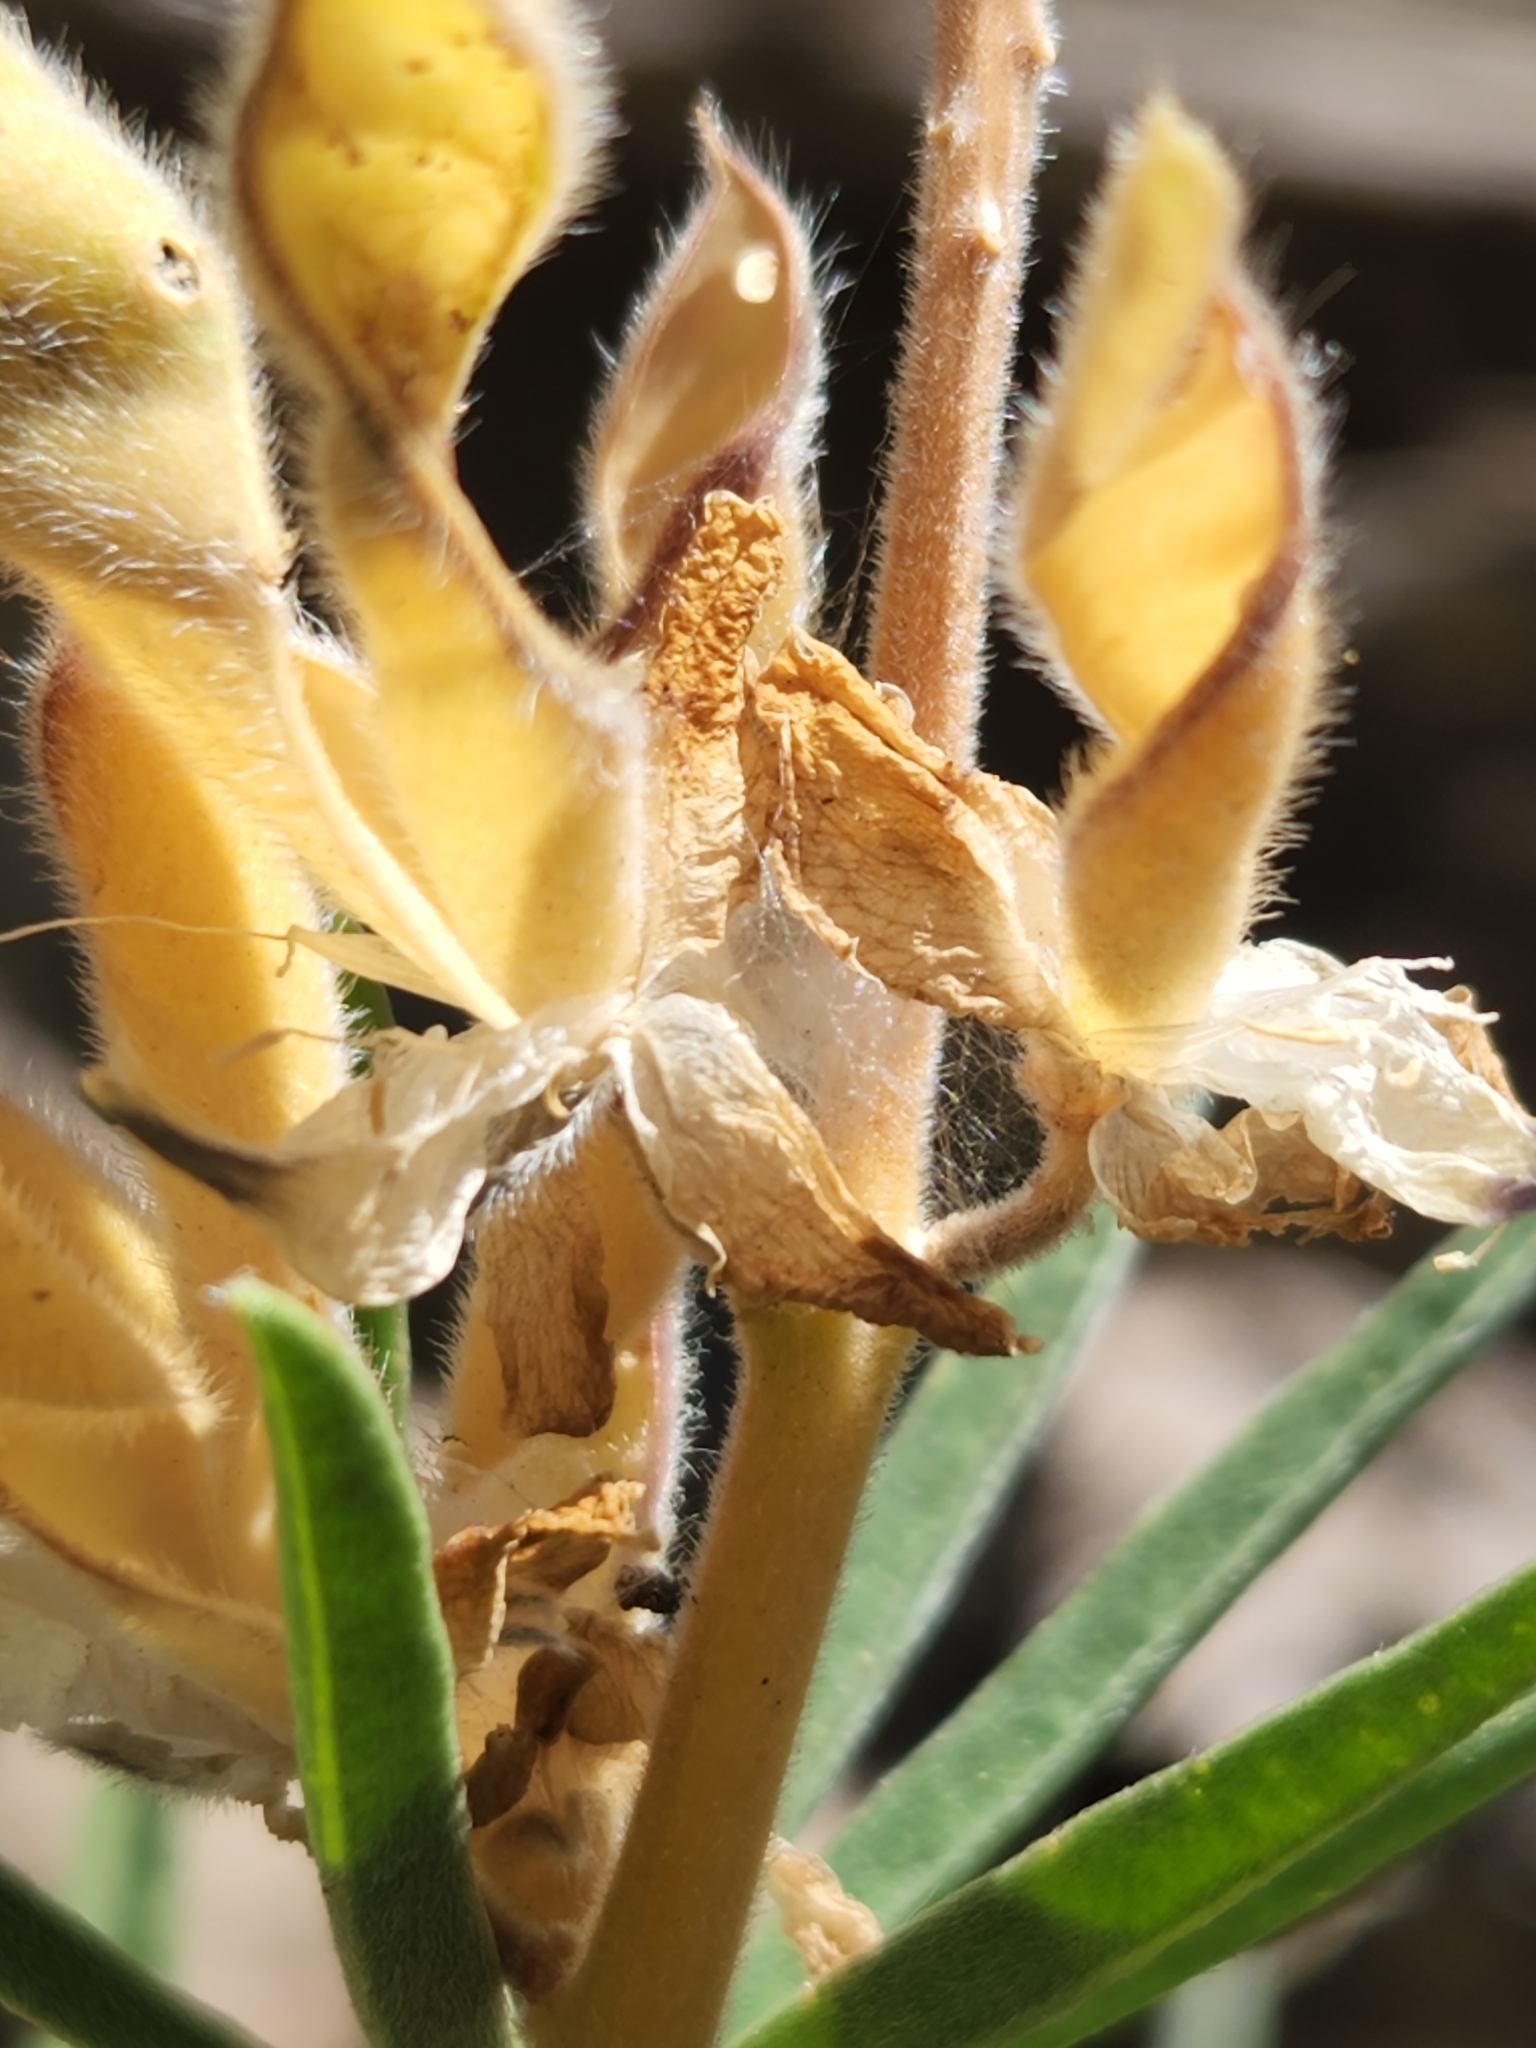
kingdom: Plantae
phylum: Tracheophyta
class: Magnoliopsida
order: Fabales
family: Fabaceae
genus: Lupinus
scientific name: Lupinus hyacinthinus
